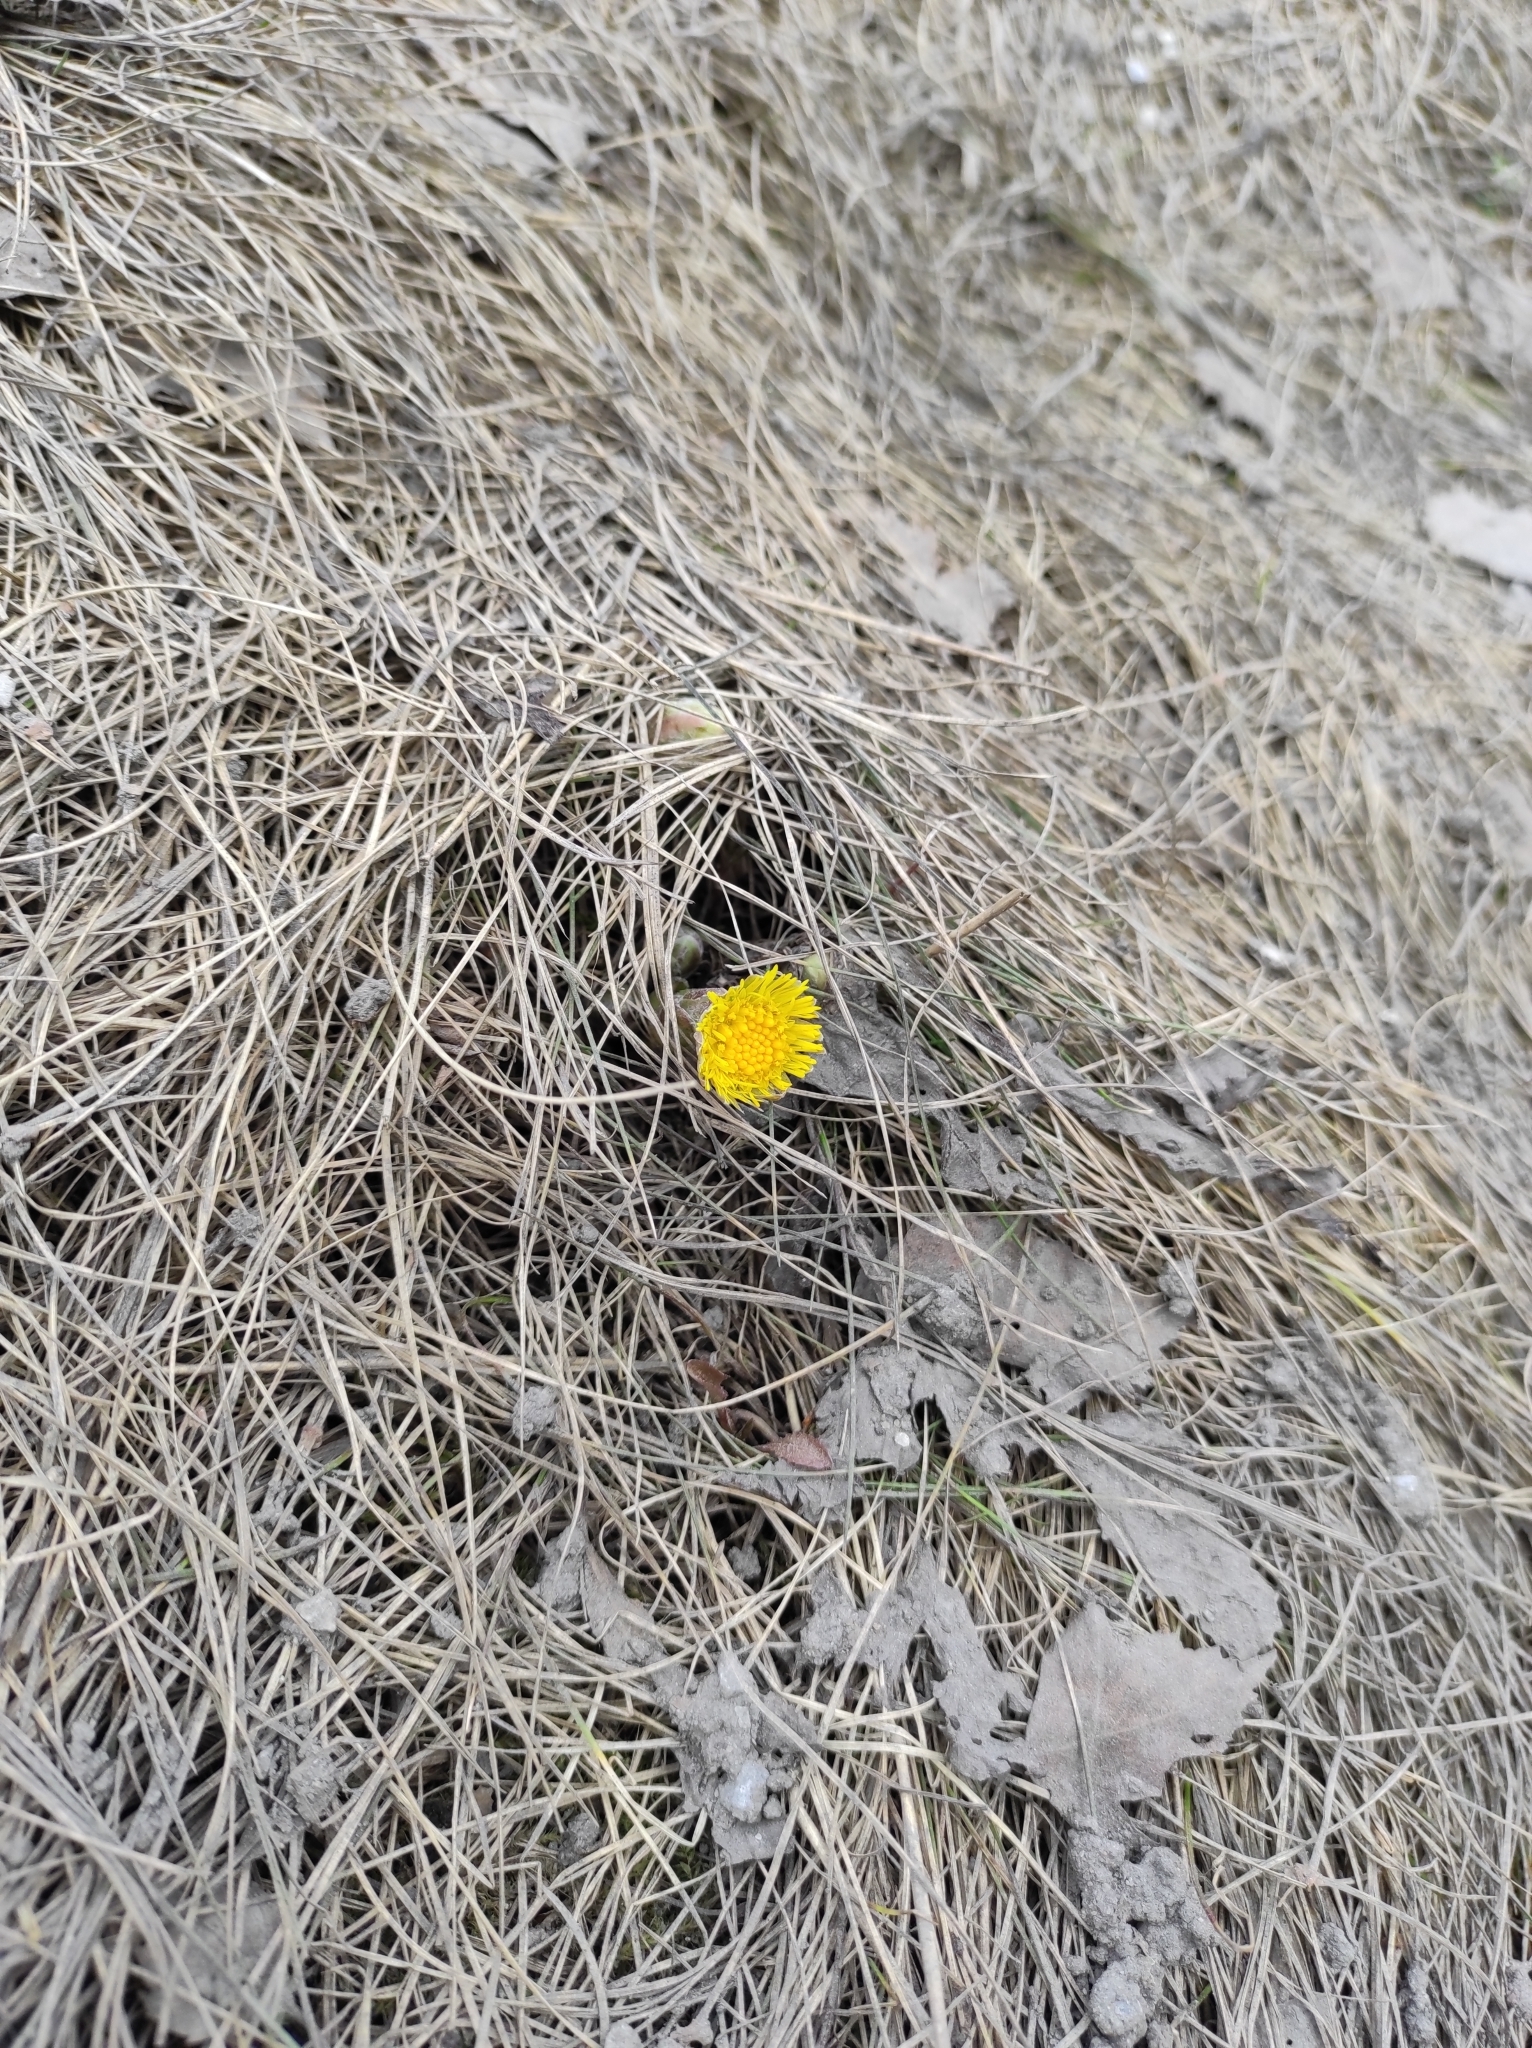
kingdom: Plantae
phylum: Tracheophyta
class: Magnoliopsida
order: Asterales
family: Asteraceae
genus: Tussilago
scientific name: Tussilago farfara
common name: Coltsfoot
